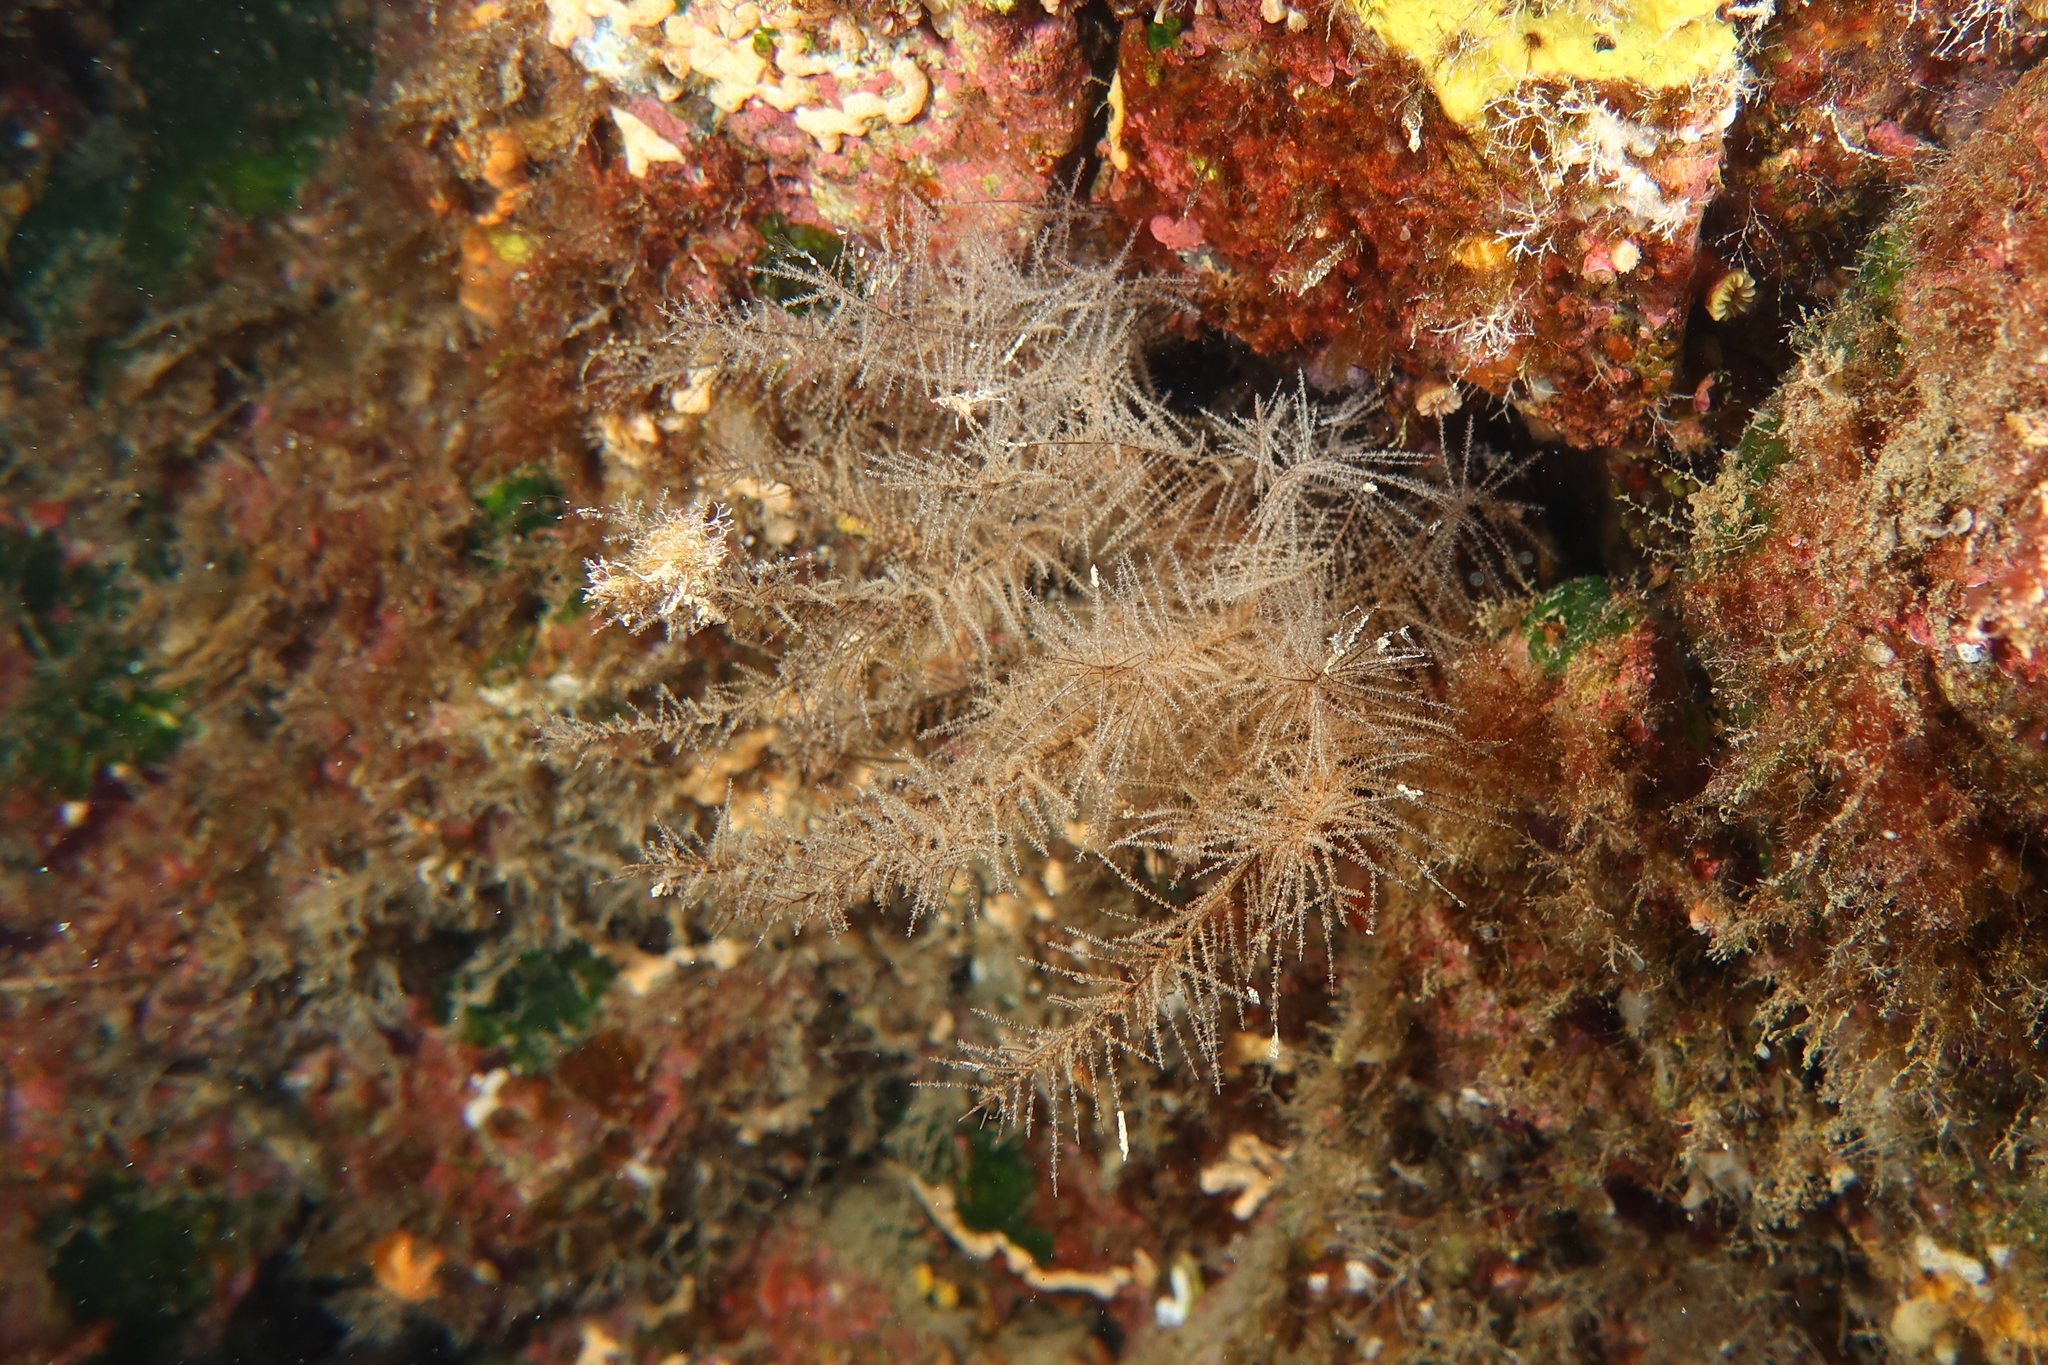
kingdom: Animalia
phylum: Cnidaria
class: Anthozoa
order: Antipatharia
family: Myriopathidae
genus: Antipathella
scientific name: Antipathella wollastoni
